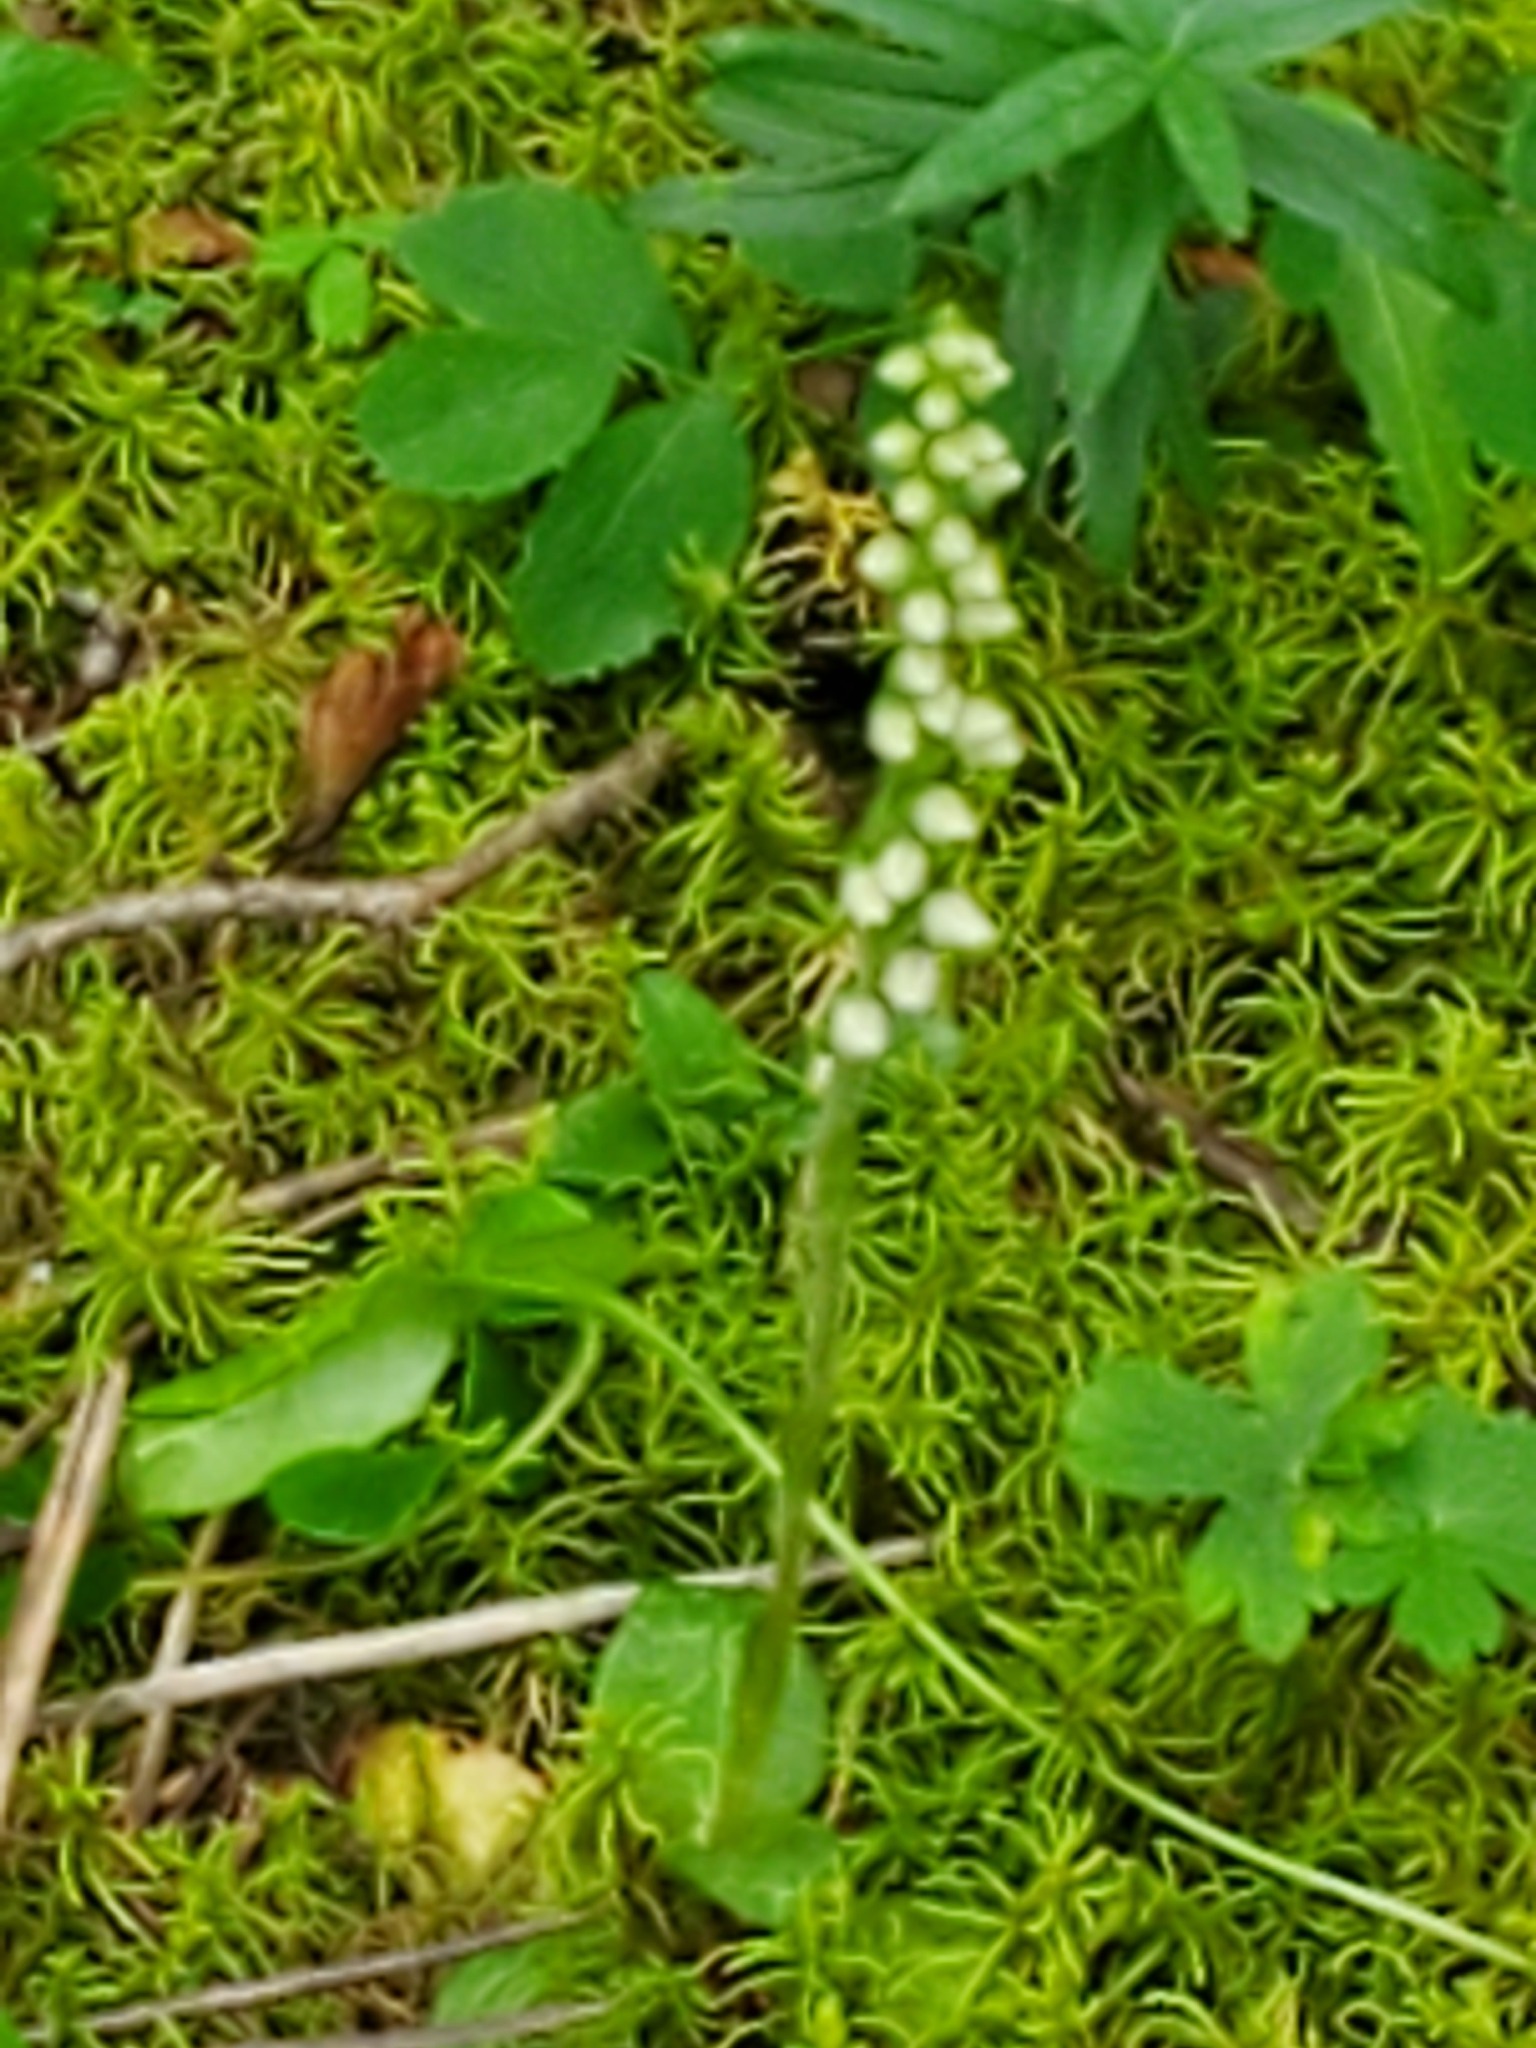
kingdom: Plantae
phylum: Tracheophyta
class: Liliopsida
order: Asparagales
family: Orchidaceae
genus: Goodyera
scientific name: Goodyera repens
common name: Creeping lady's-tresses
